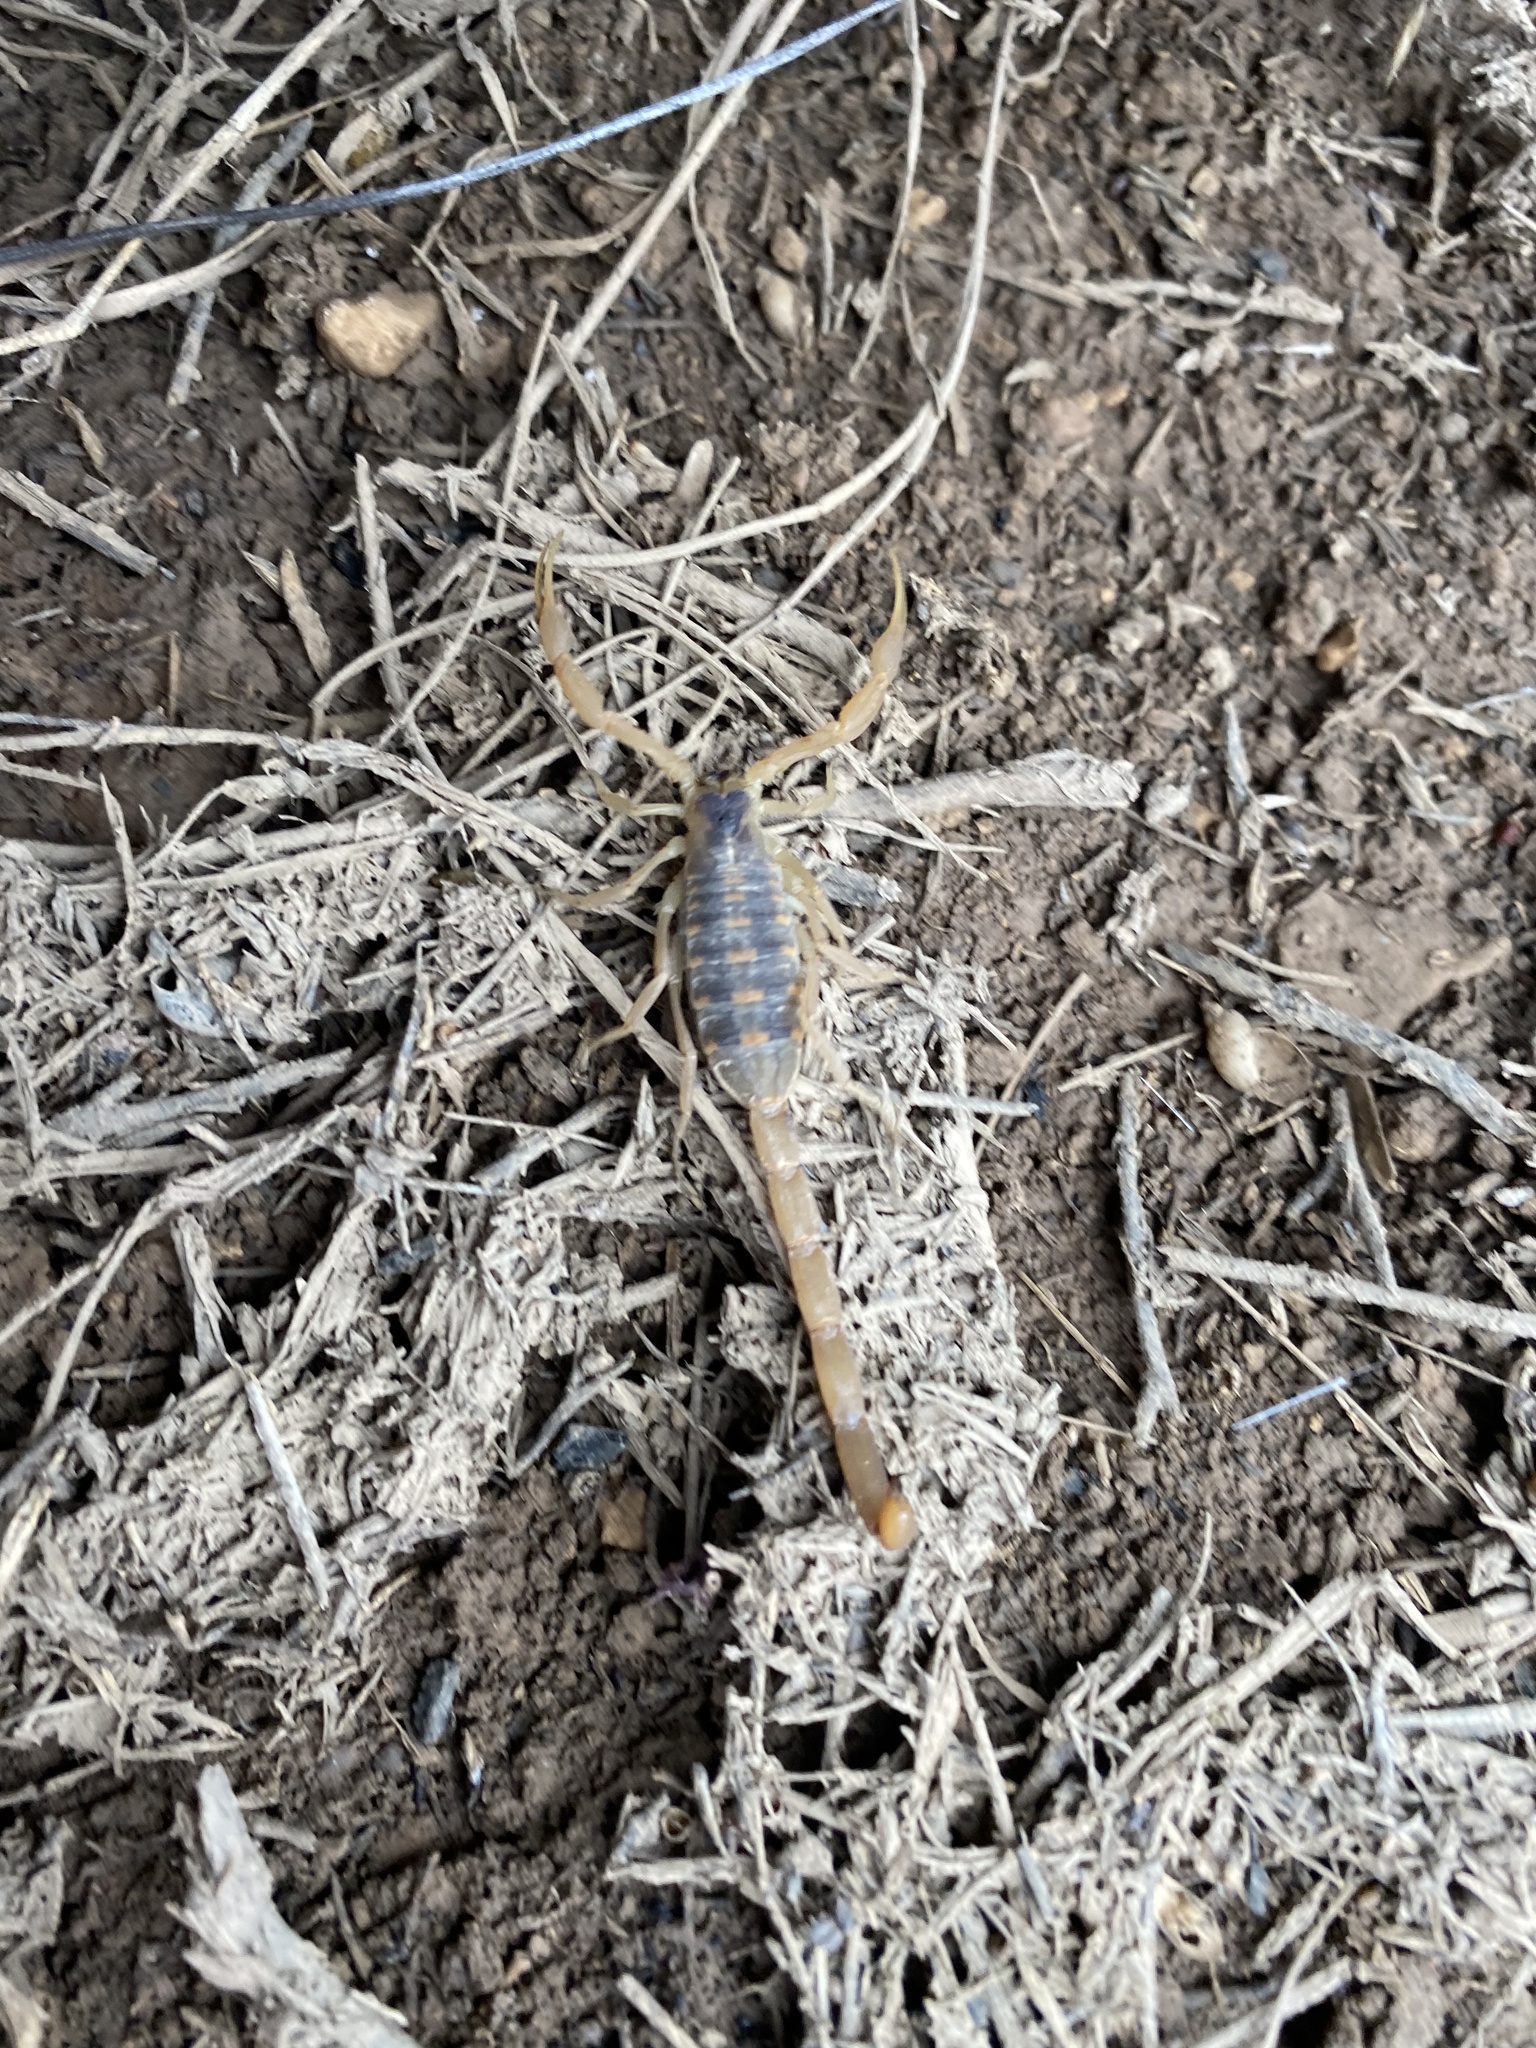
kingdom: Animalia
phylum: Arthropoda
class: Arachnida
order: Scorpiones
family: Buthidae
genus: Centruroides
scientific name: Centruroides vittatus
